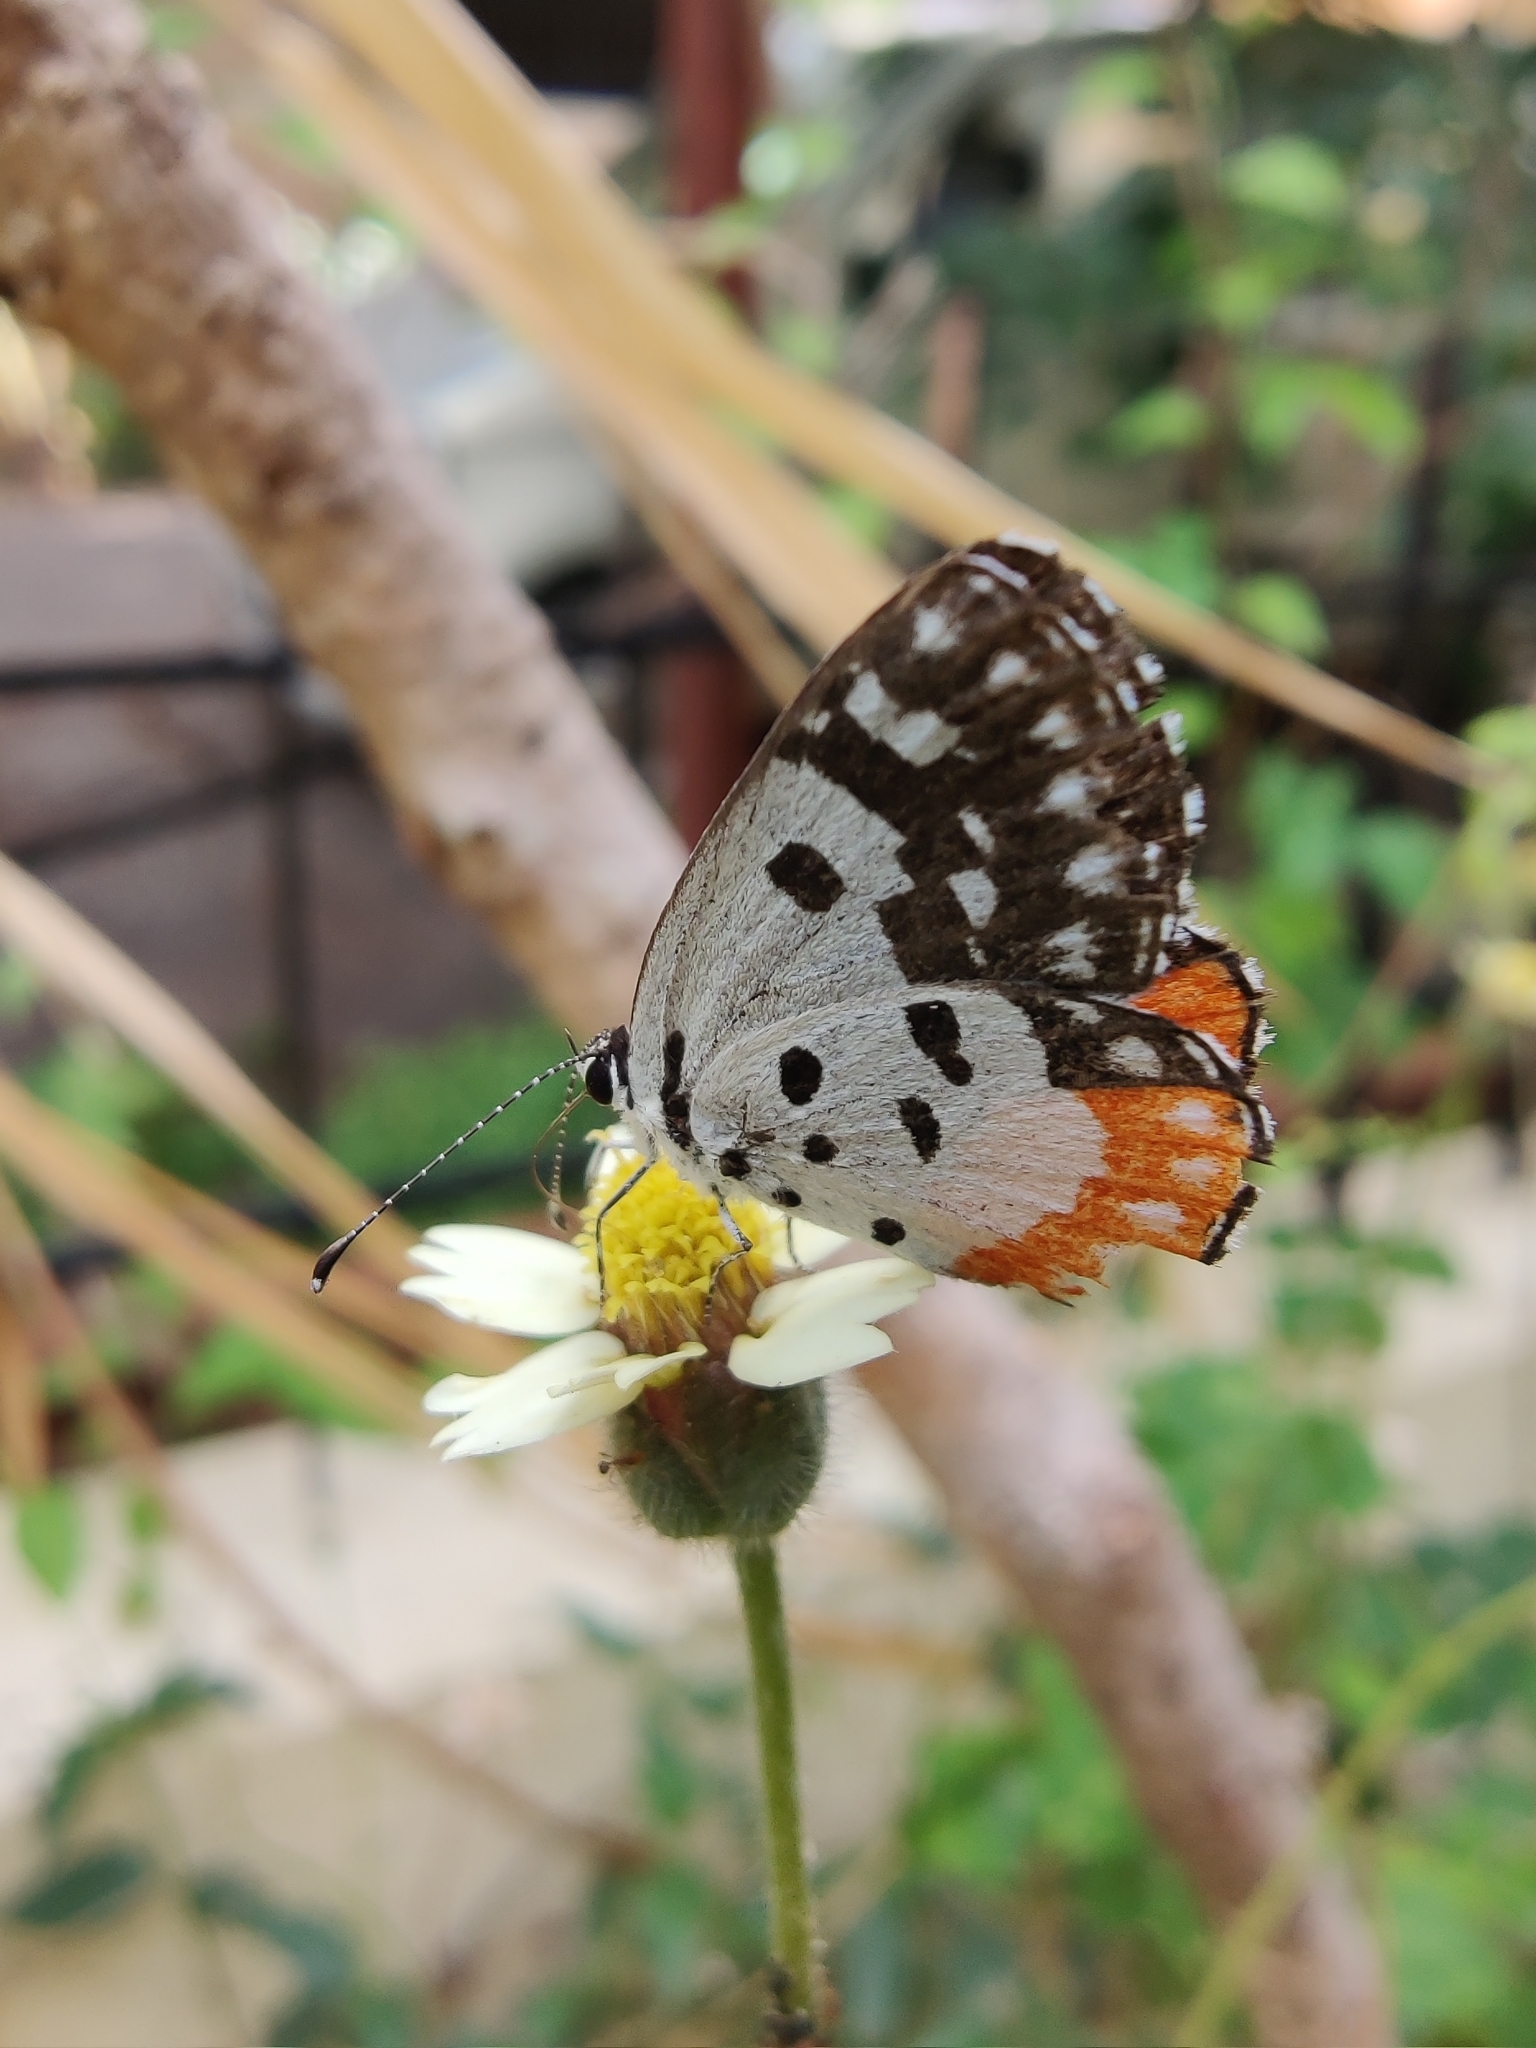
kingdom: Animalia
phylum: Arthropoda
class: Insecta
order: Lepidoptera
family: Lycaenidae
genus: Talicada
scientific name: Talicada nyseus
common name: Red pierrot
